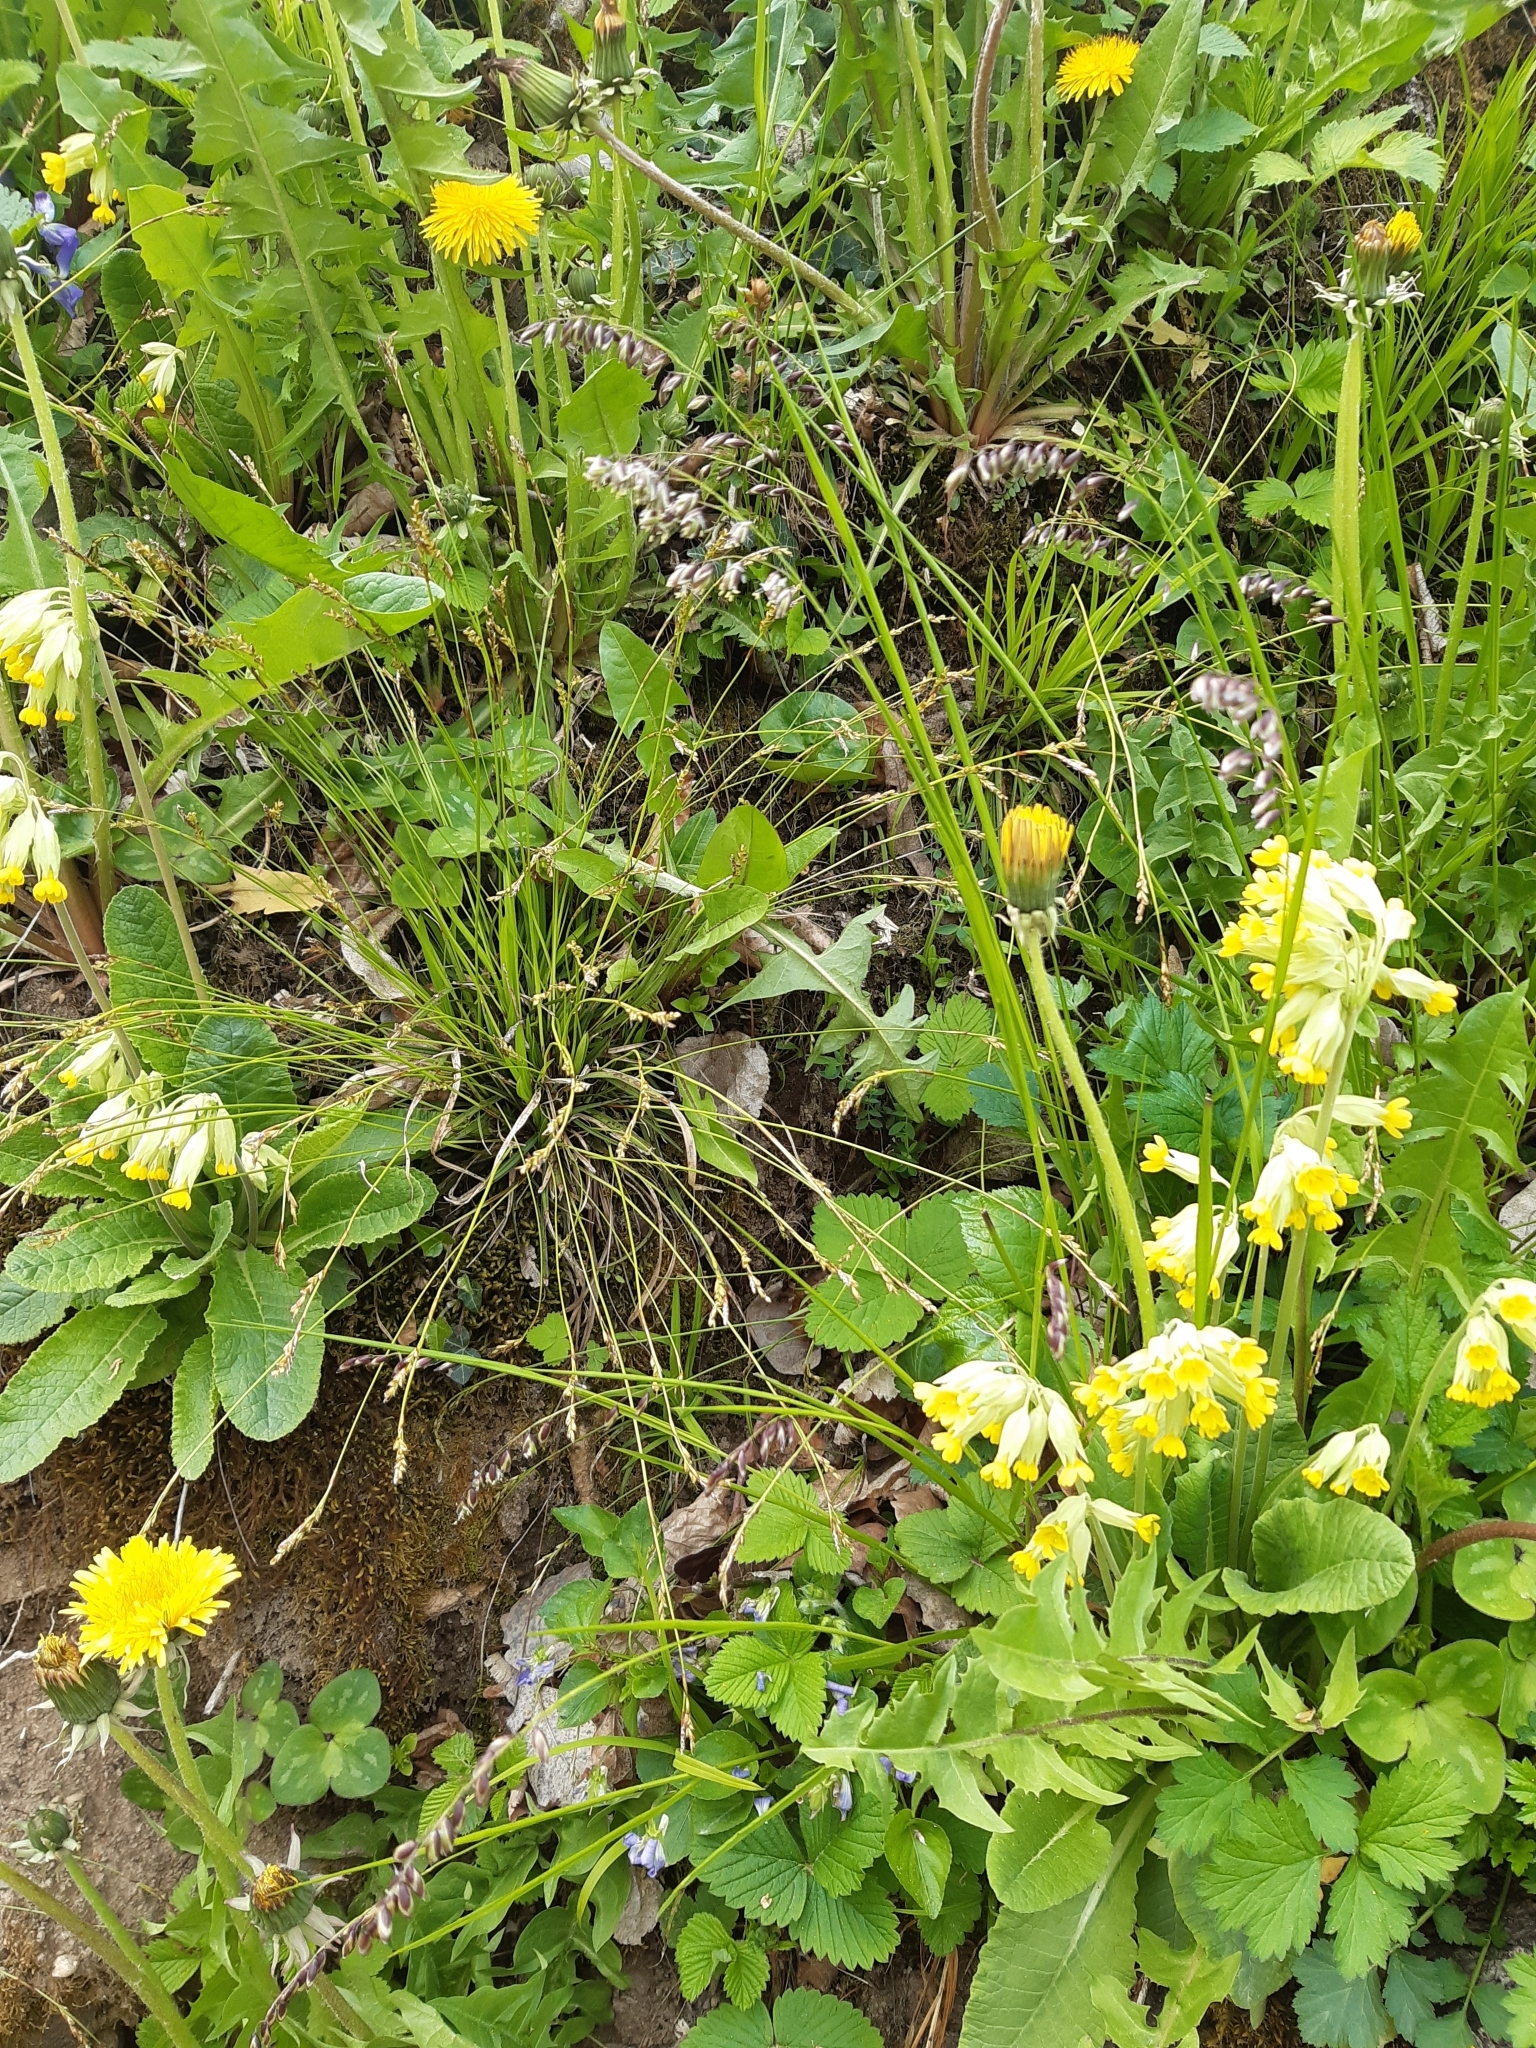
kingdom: Plantae
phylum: Tracheophyta
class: Liliopsida
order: Poales
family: Poaceae
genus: Melica
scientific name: Melica nutans
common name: Mountain melick
